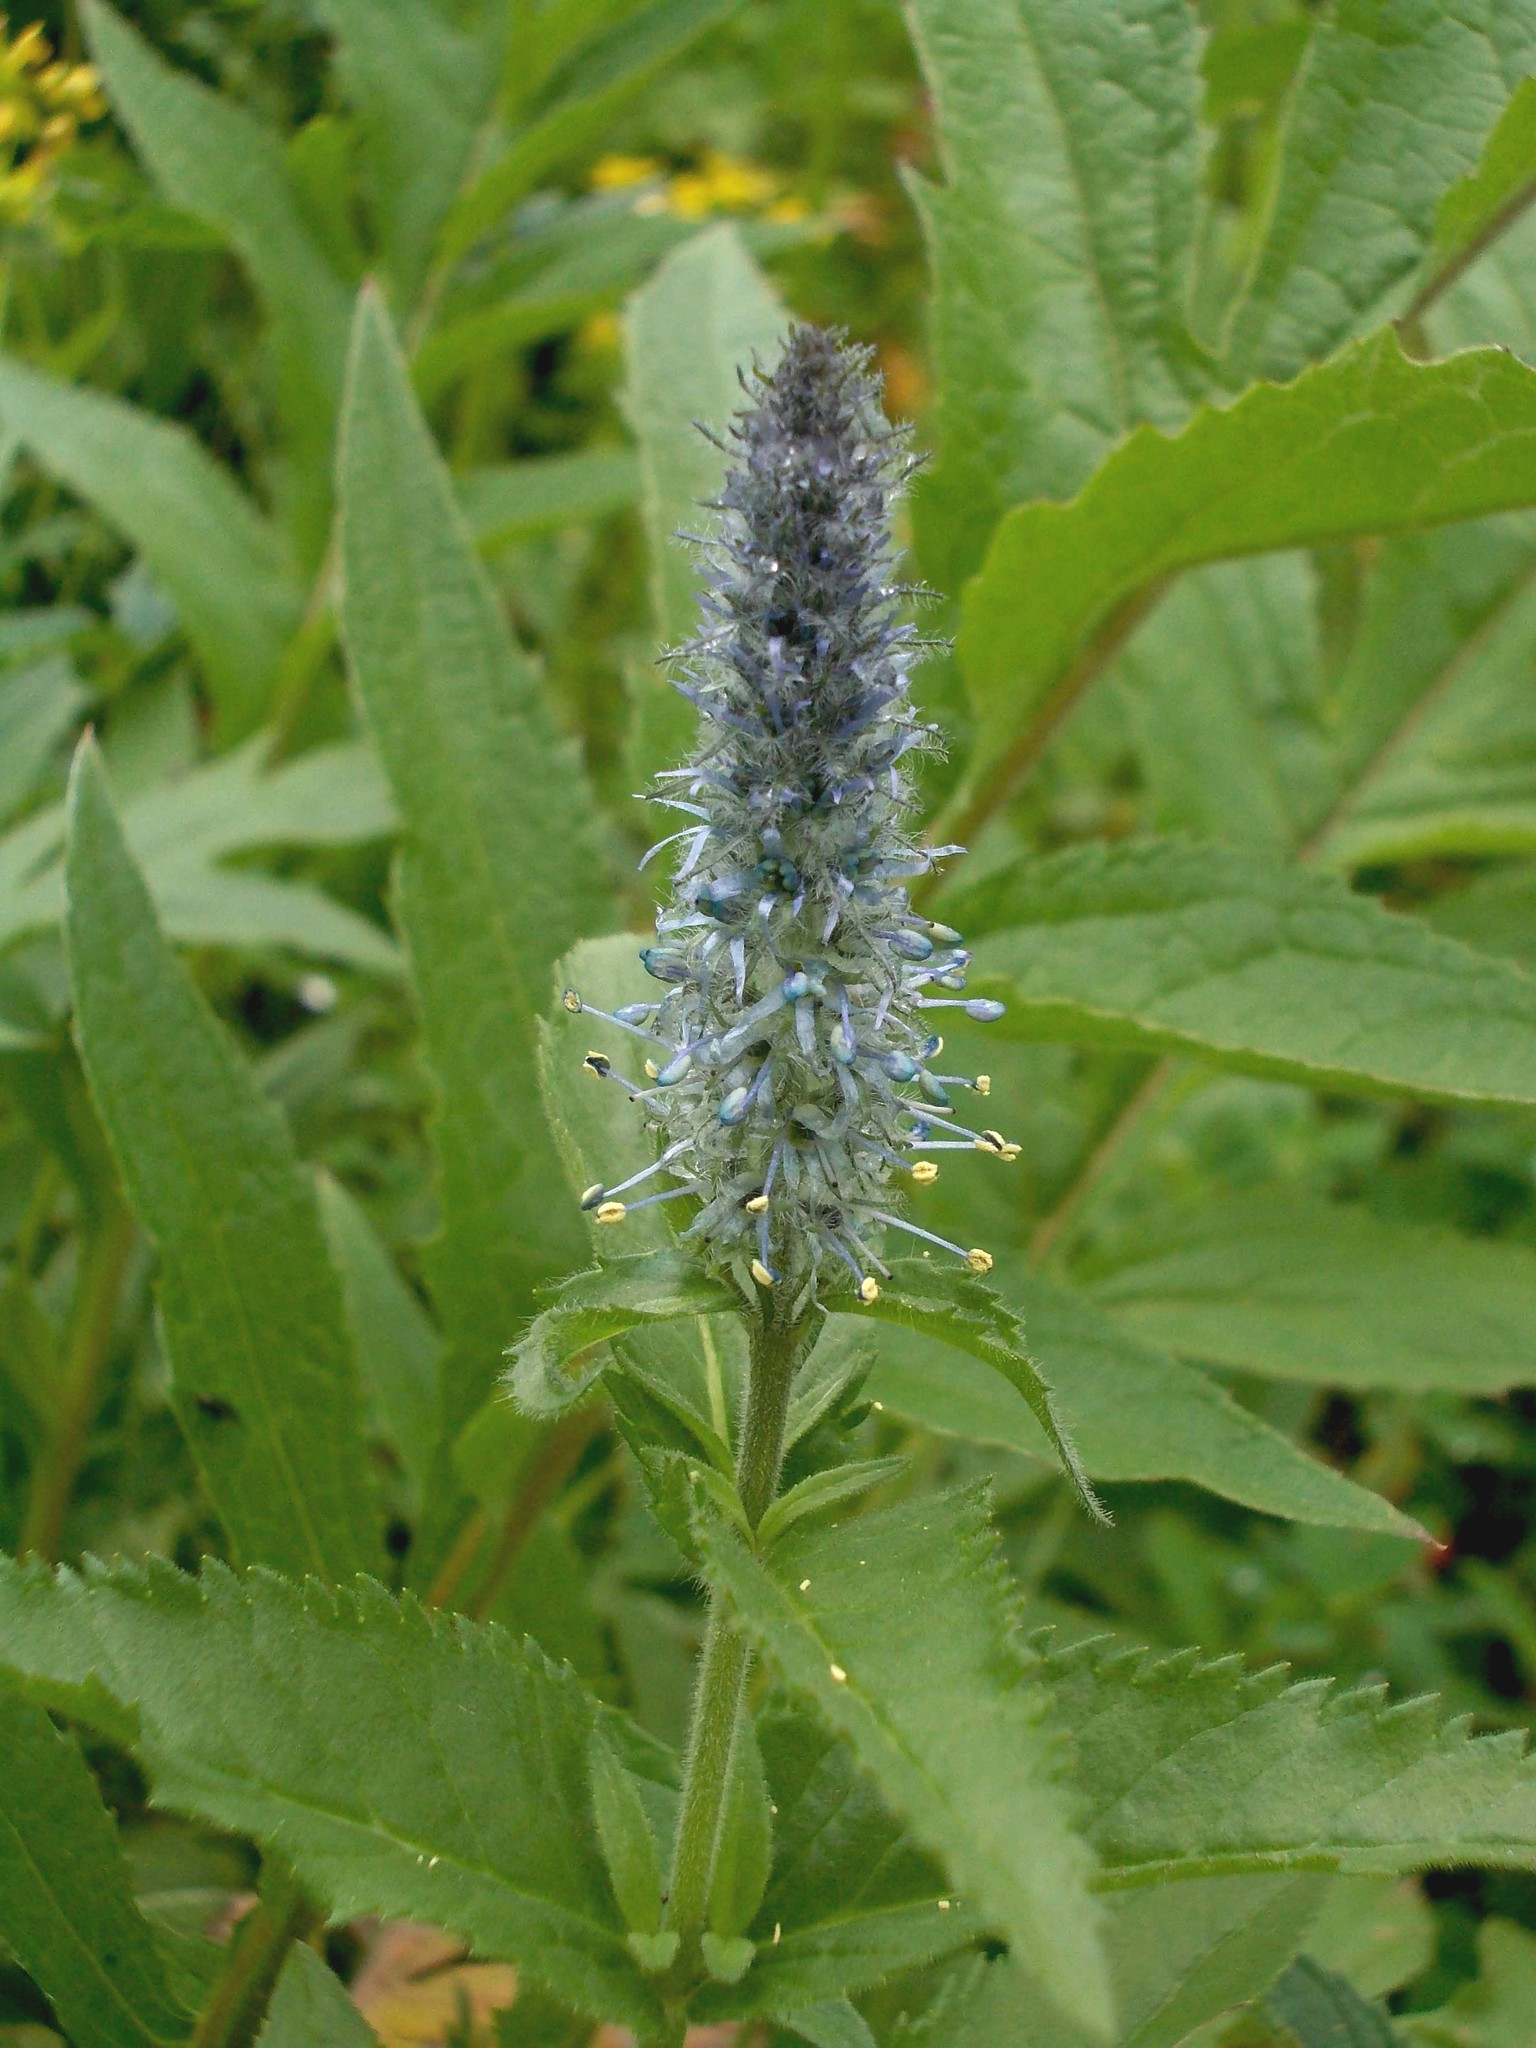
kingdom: Plantae
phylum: Tracheophyta
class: Magnoliopsida
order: Lamiales
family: Plantaginaceae
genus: Veronica
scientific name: Veronica sajanensis
